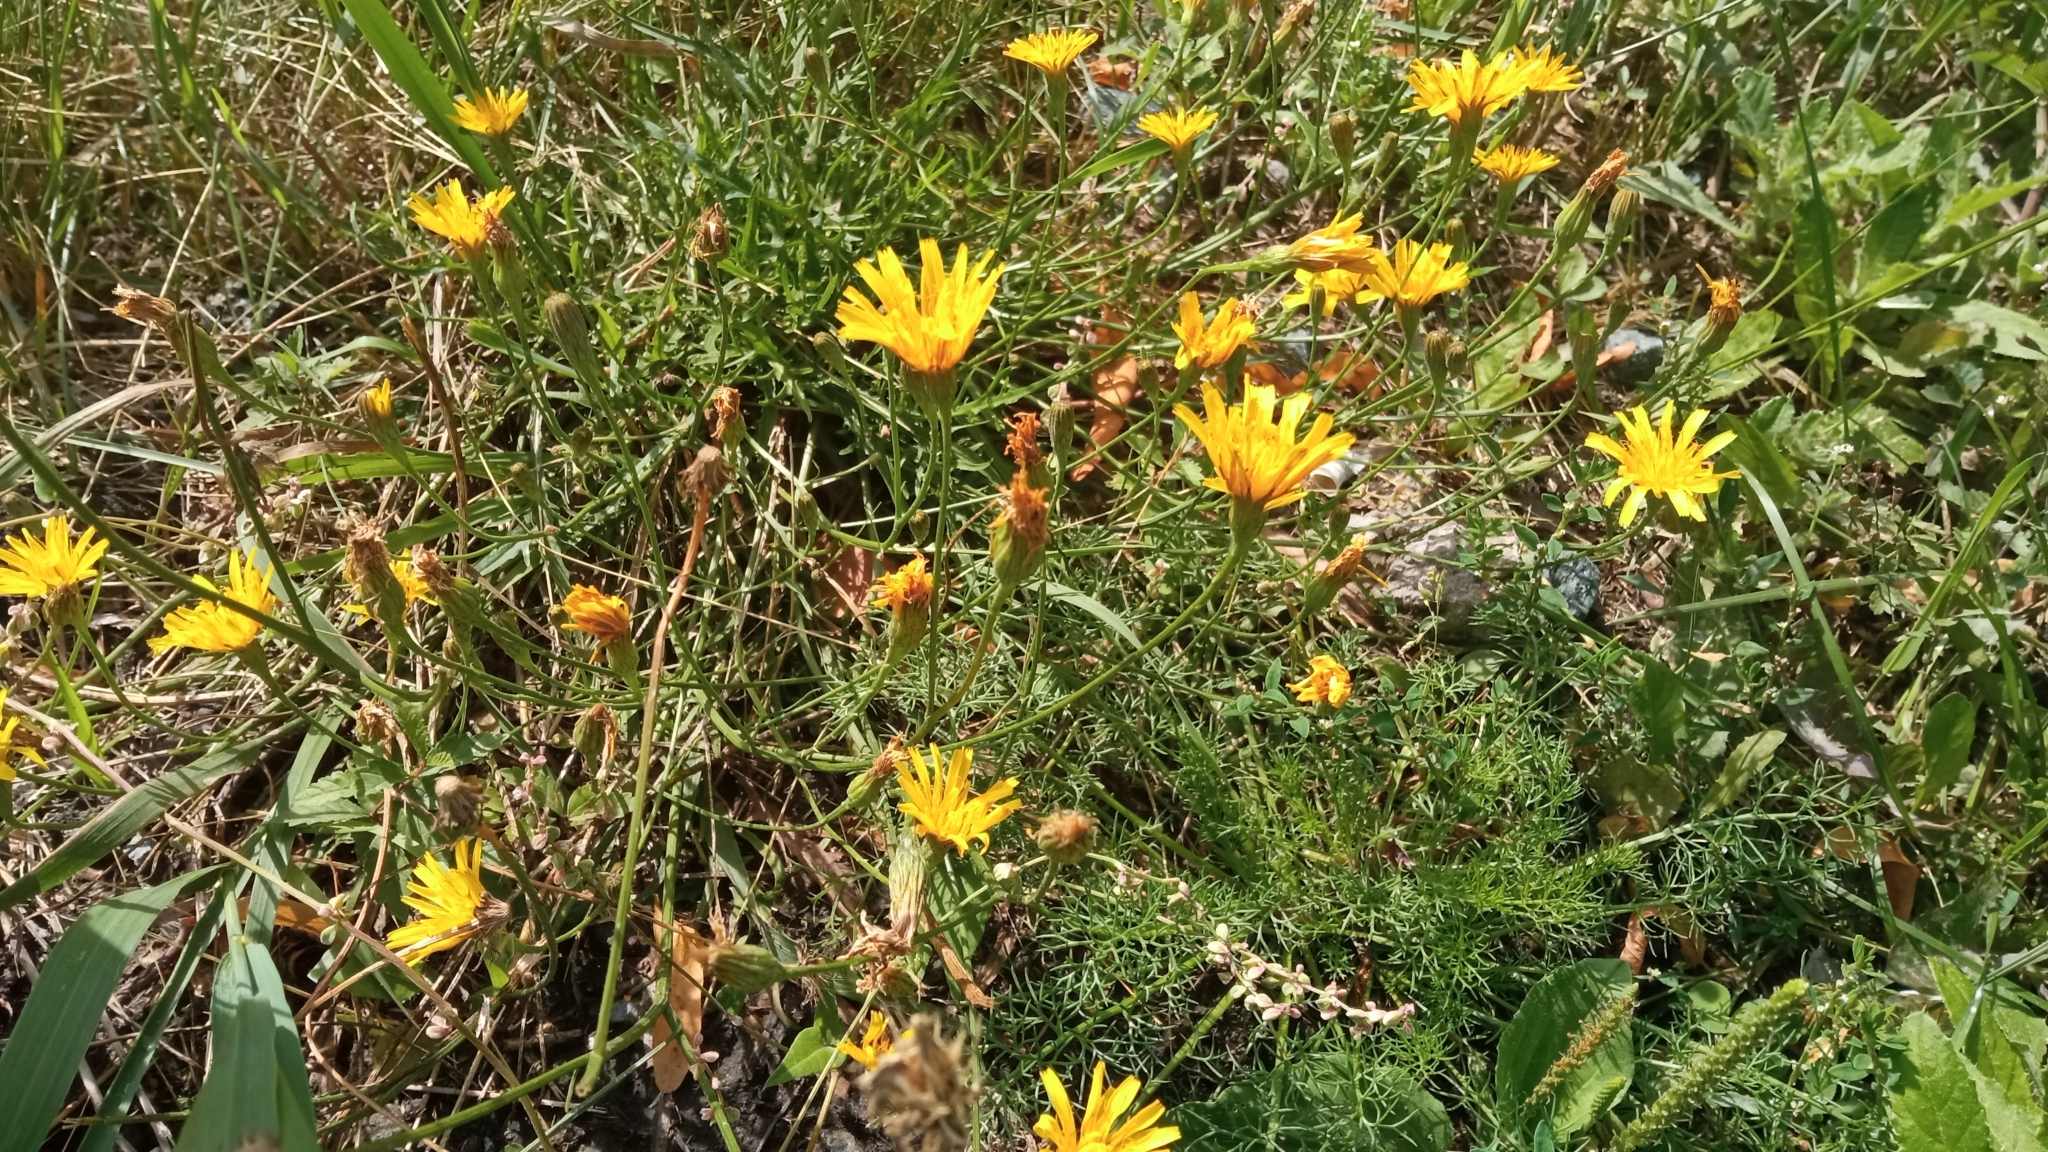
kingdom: Plantae
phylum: Tracheophyta
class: Magnoliopsida
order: Asterales
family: Asteraceae
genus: Scorzoneroides
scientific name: Scorzoneroides autumnalis
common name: Autumn hawkbit
